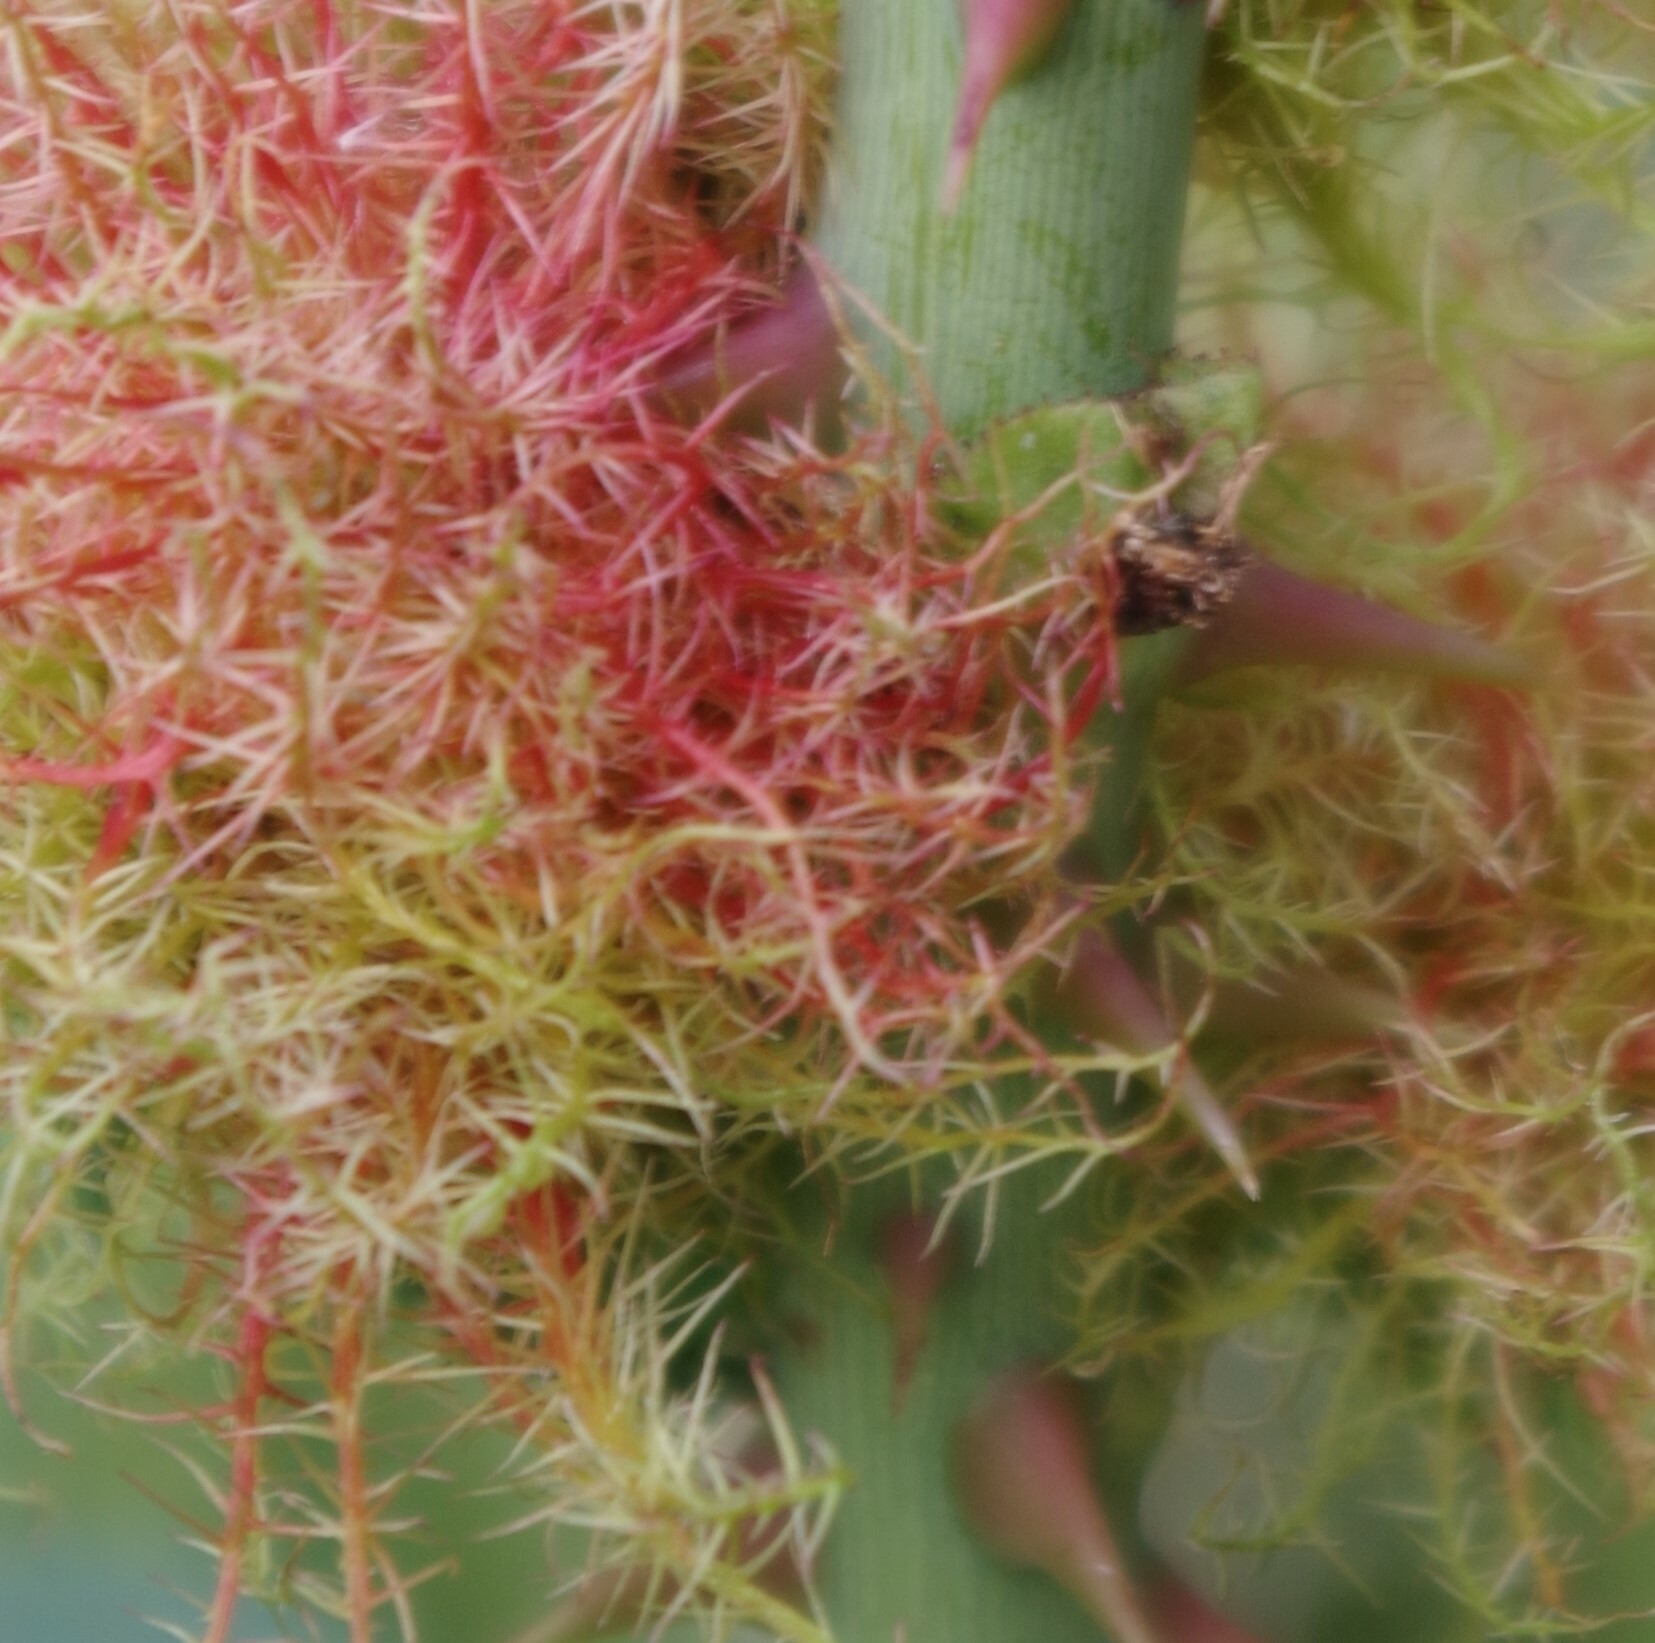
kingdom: Animalia
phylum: Arthropoda
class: Insecta
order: Hymenoptera
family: Cynipidae
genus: Diplolepis
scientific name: Diplolepis rosae
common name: Bedeguar gall
